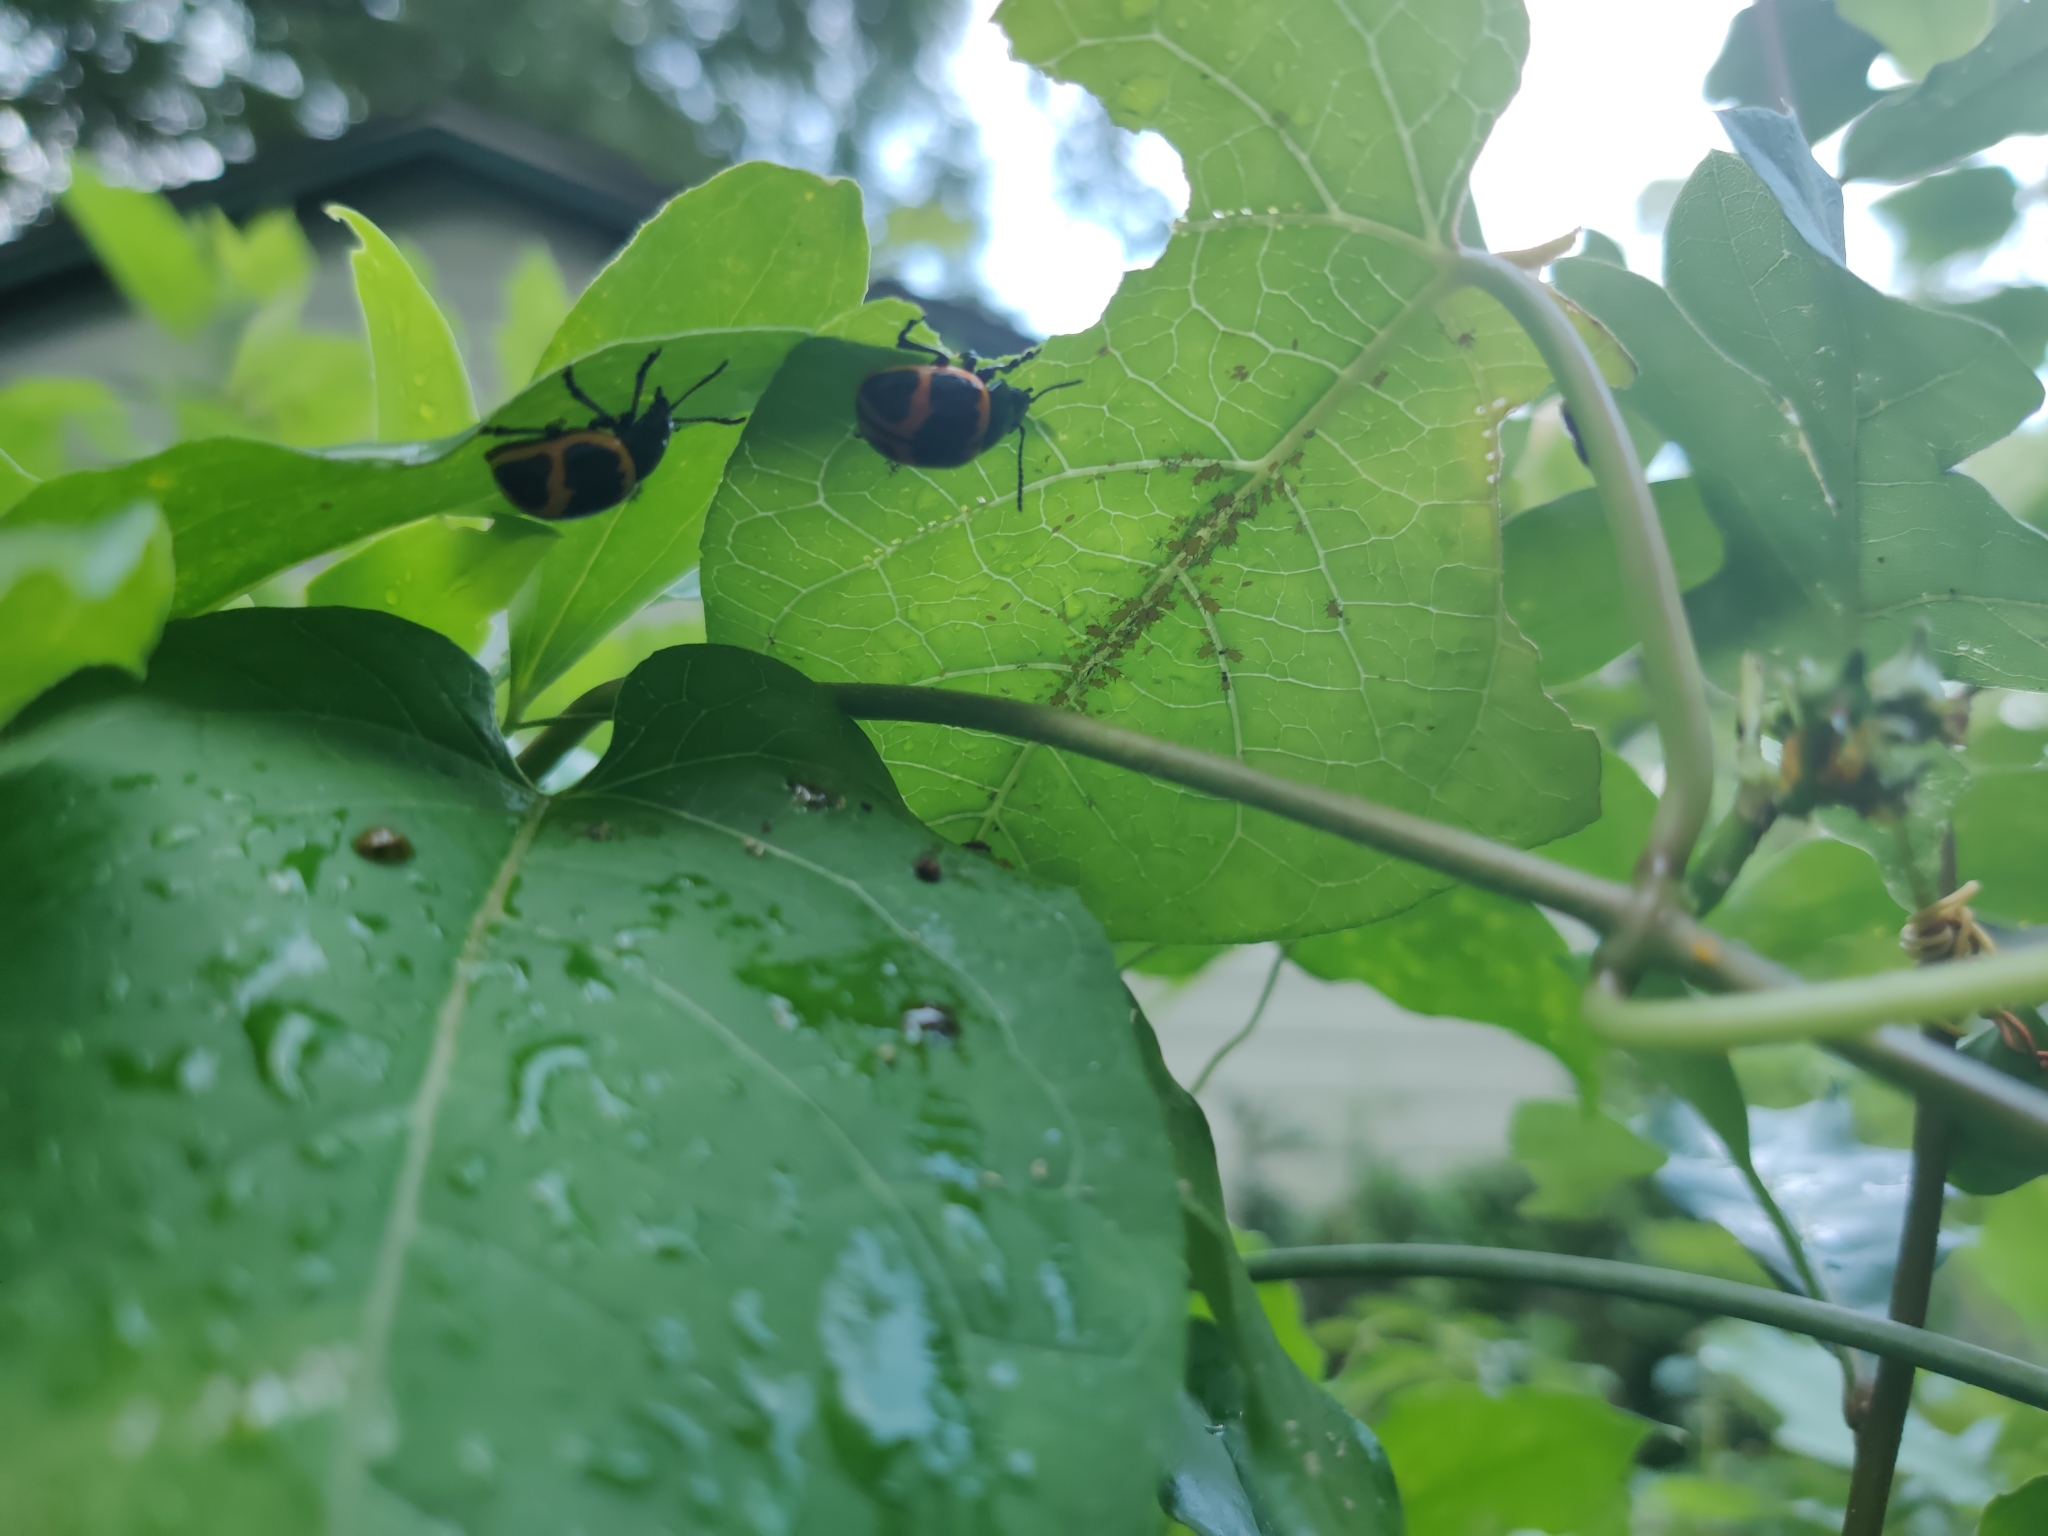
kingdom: Animalia
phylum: Arthropoda
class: Insecta
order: Coleoptera
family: Chrysomelidae
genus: Labidomera
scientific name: Labidomera clivicollis
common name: Swamp milkweed leaf beetle
